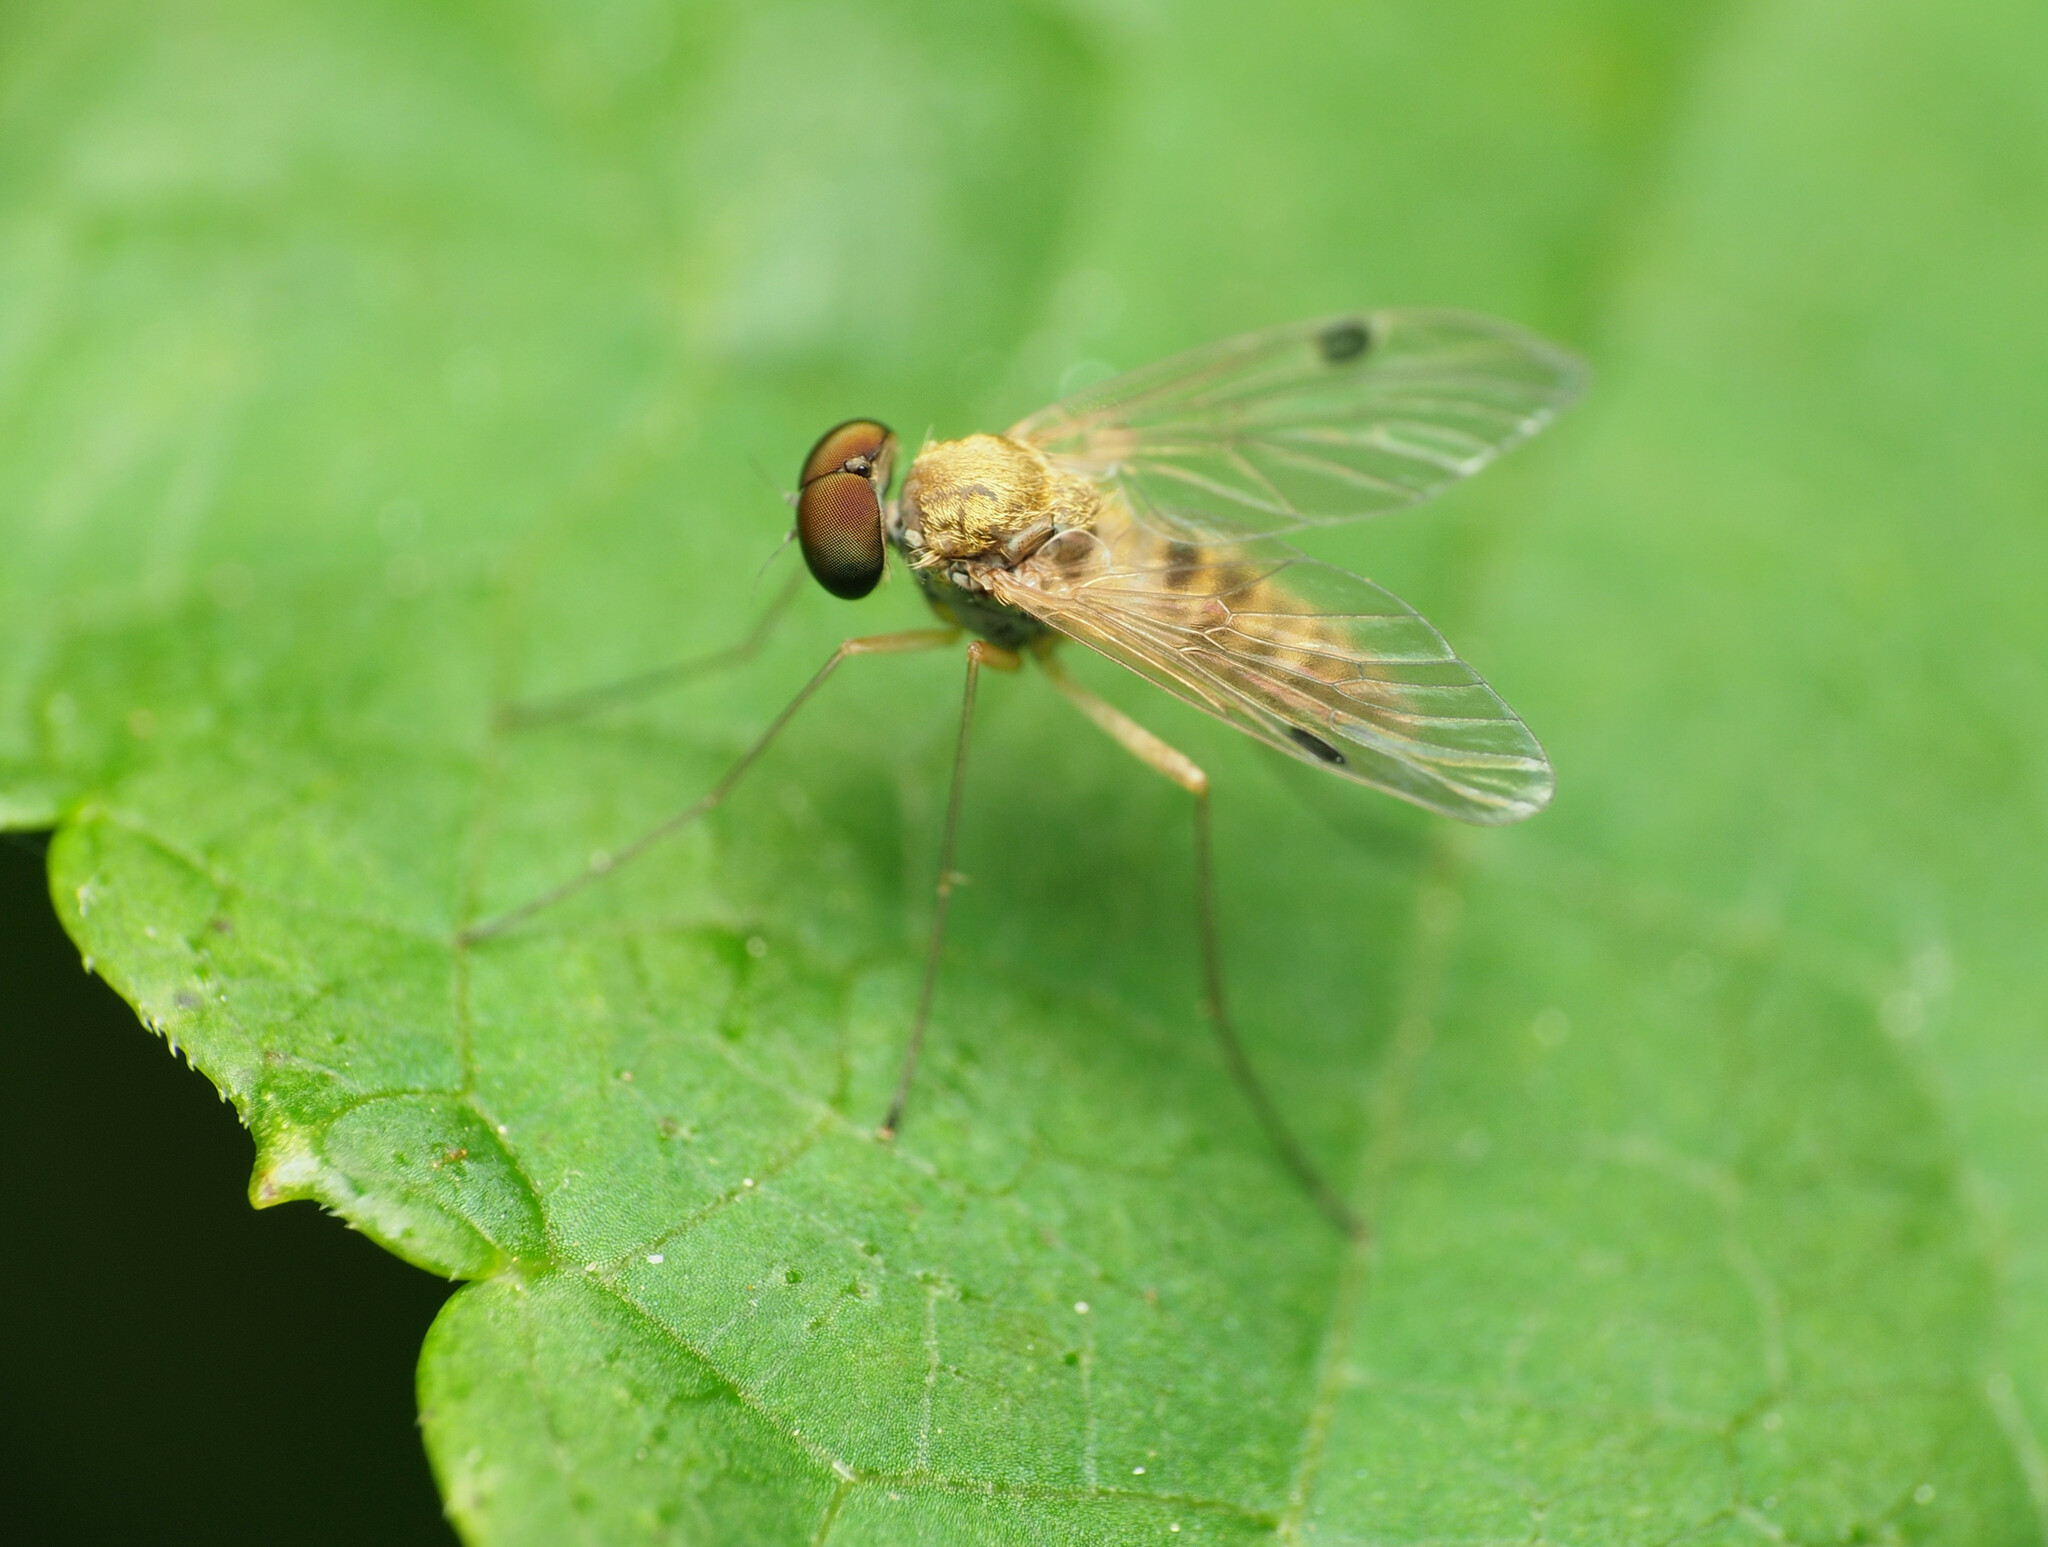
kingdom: Animalia
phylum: Arthropoda
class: Insecta
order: Diptera
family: Rhagionidae
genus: Chrysopilus
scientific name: Chrysopilus modestus
